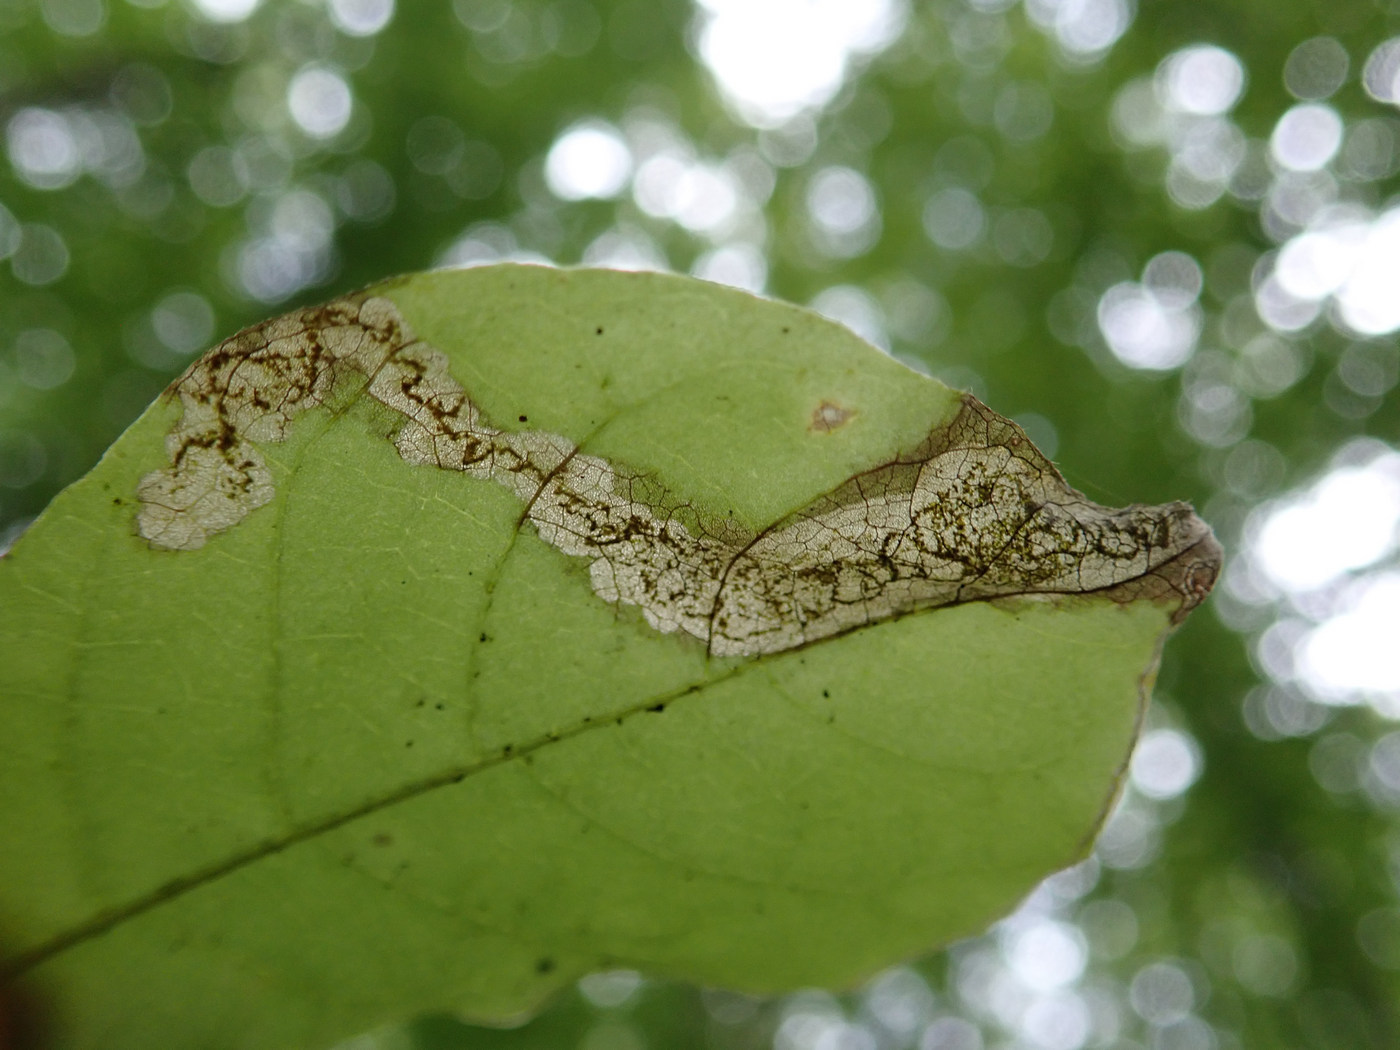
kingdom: Animalia
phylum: Arthropoda
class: Insecta
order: Lepidoptera
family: Nepticulidae
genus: Ectoedemia
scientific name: Ectoedemia nyssaefoliella
